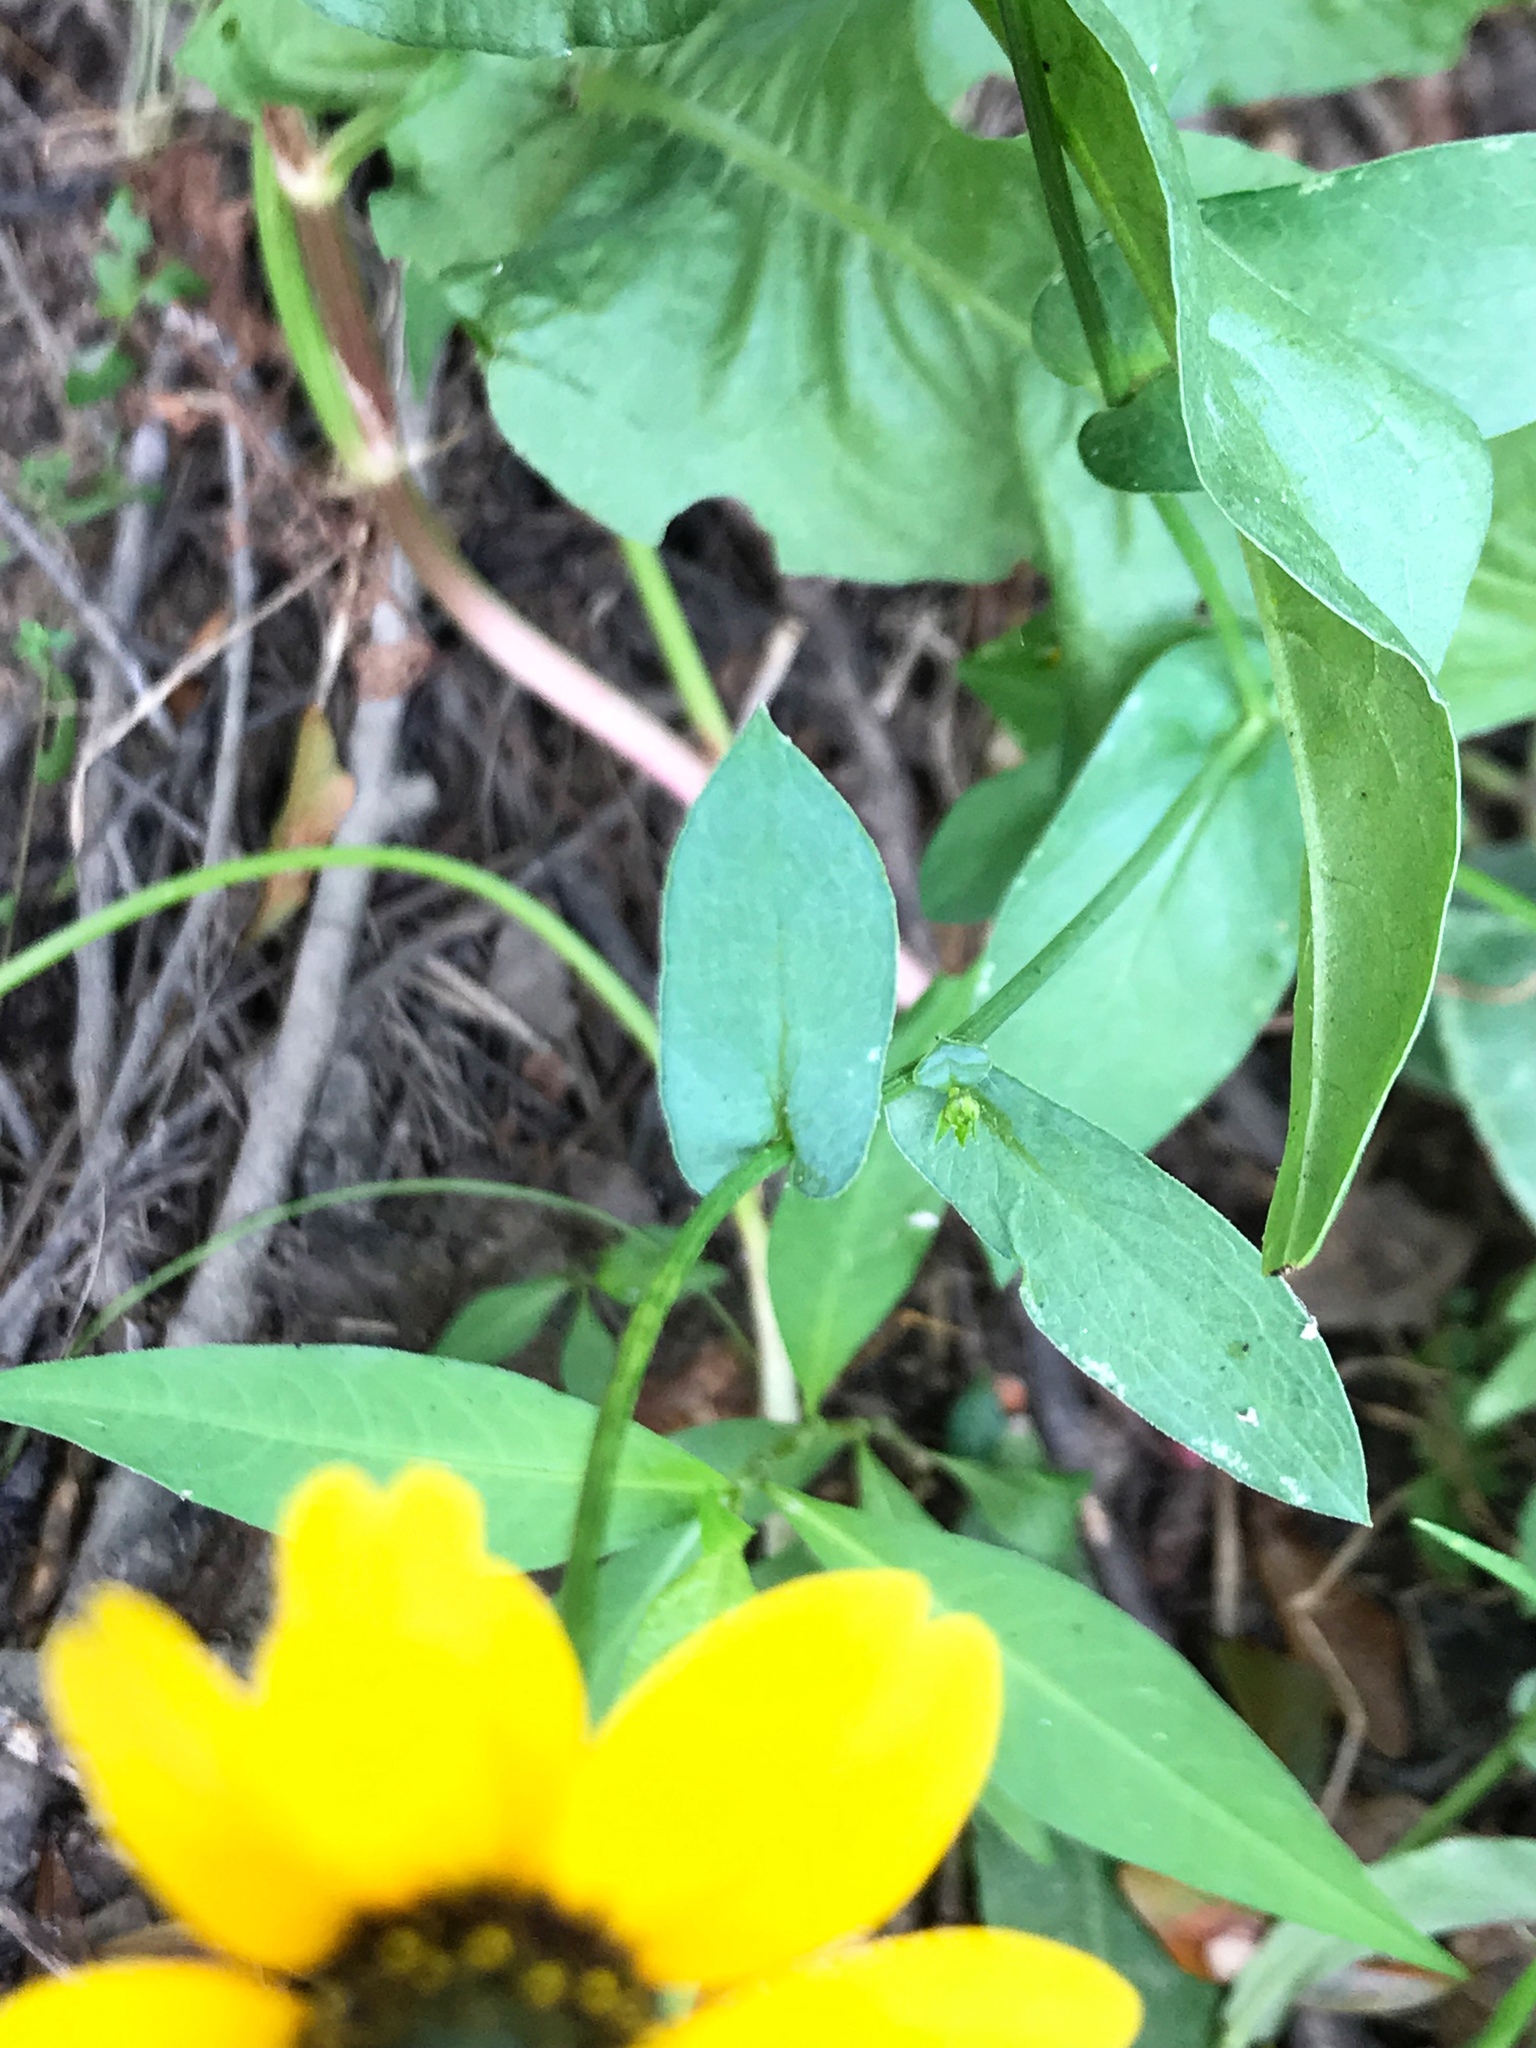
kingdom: Plantae
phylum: Tracheophyta
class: Magnoliopsida
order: Asterales
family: Asteraceae
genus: Rudbeckia
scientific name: Rudbeckia amplexicaulis
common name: Clasping-leaf coneflower
